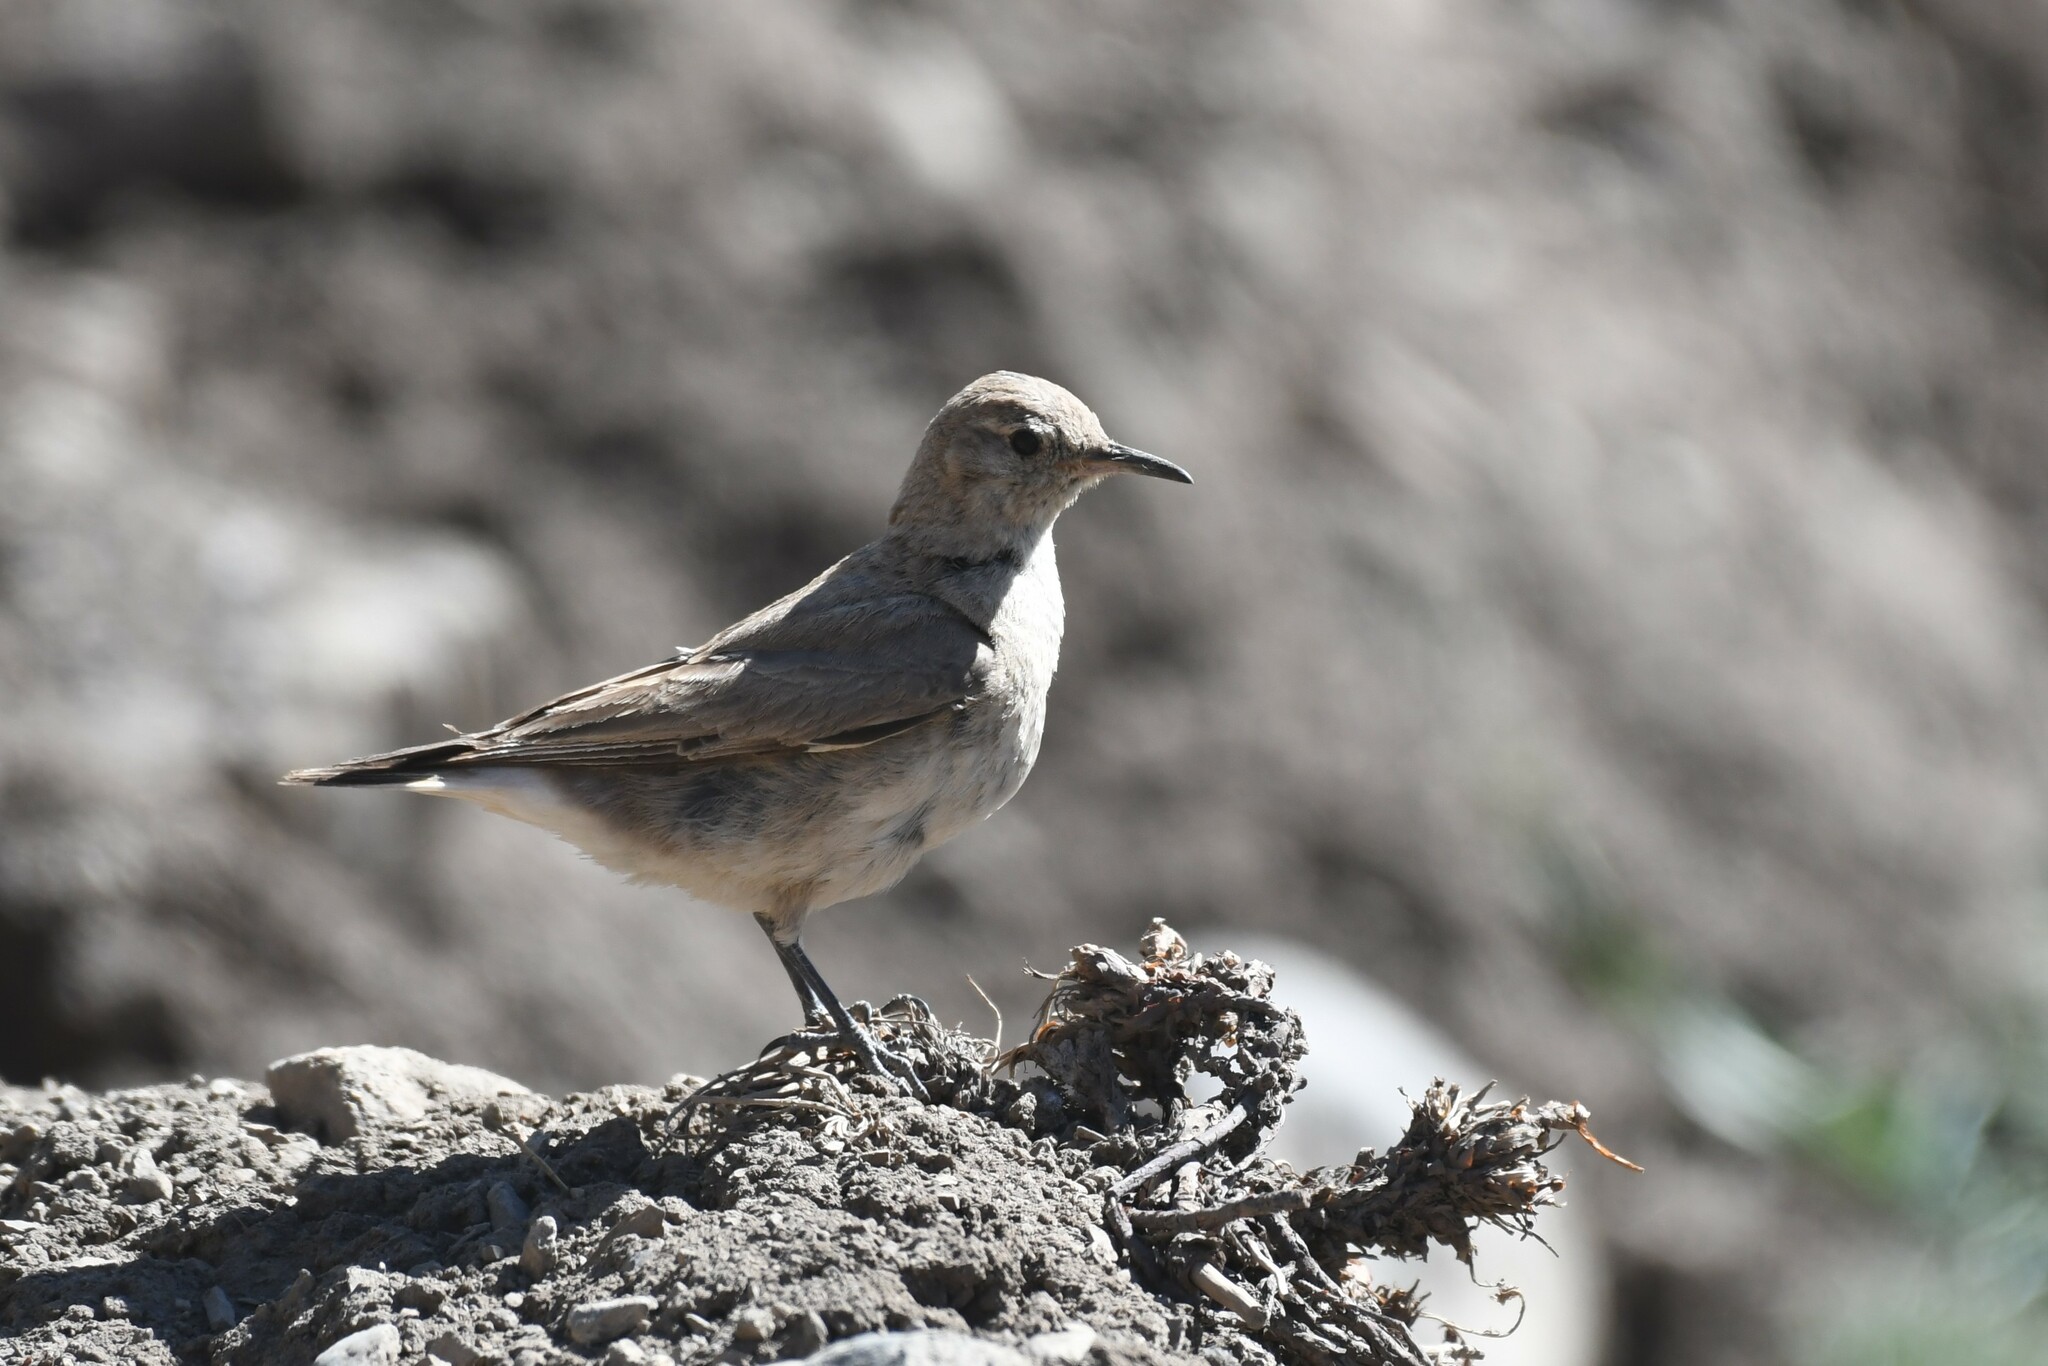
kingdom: Animalia
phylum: Chordata
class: Aves
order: Passeriformes
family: Furnariidae
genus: Geositta
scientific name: Geositta isabellina
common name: Creamy-rumped miner
